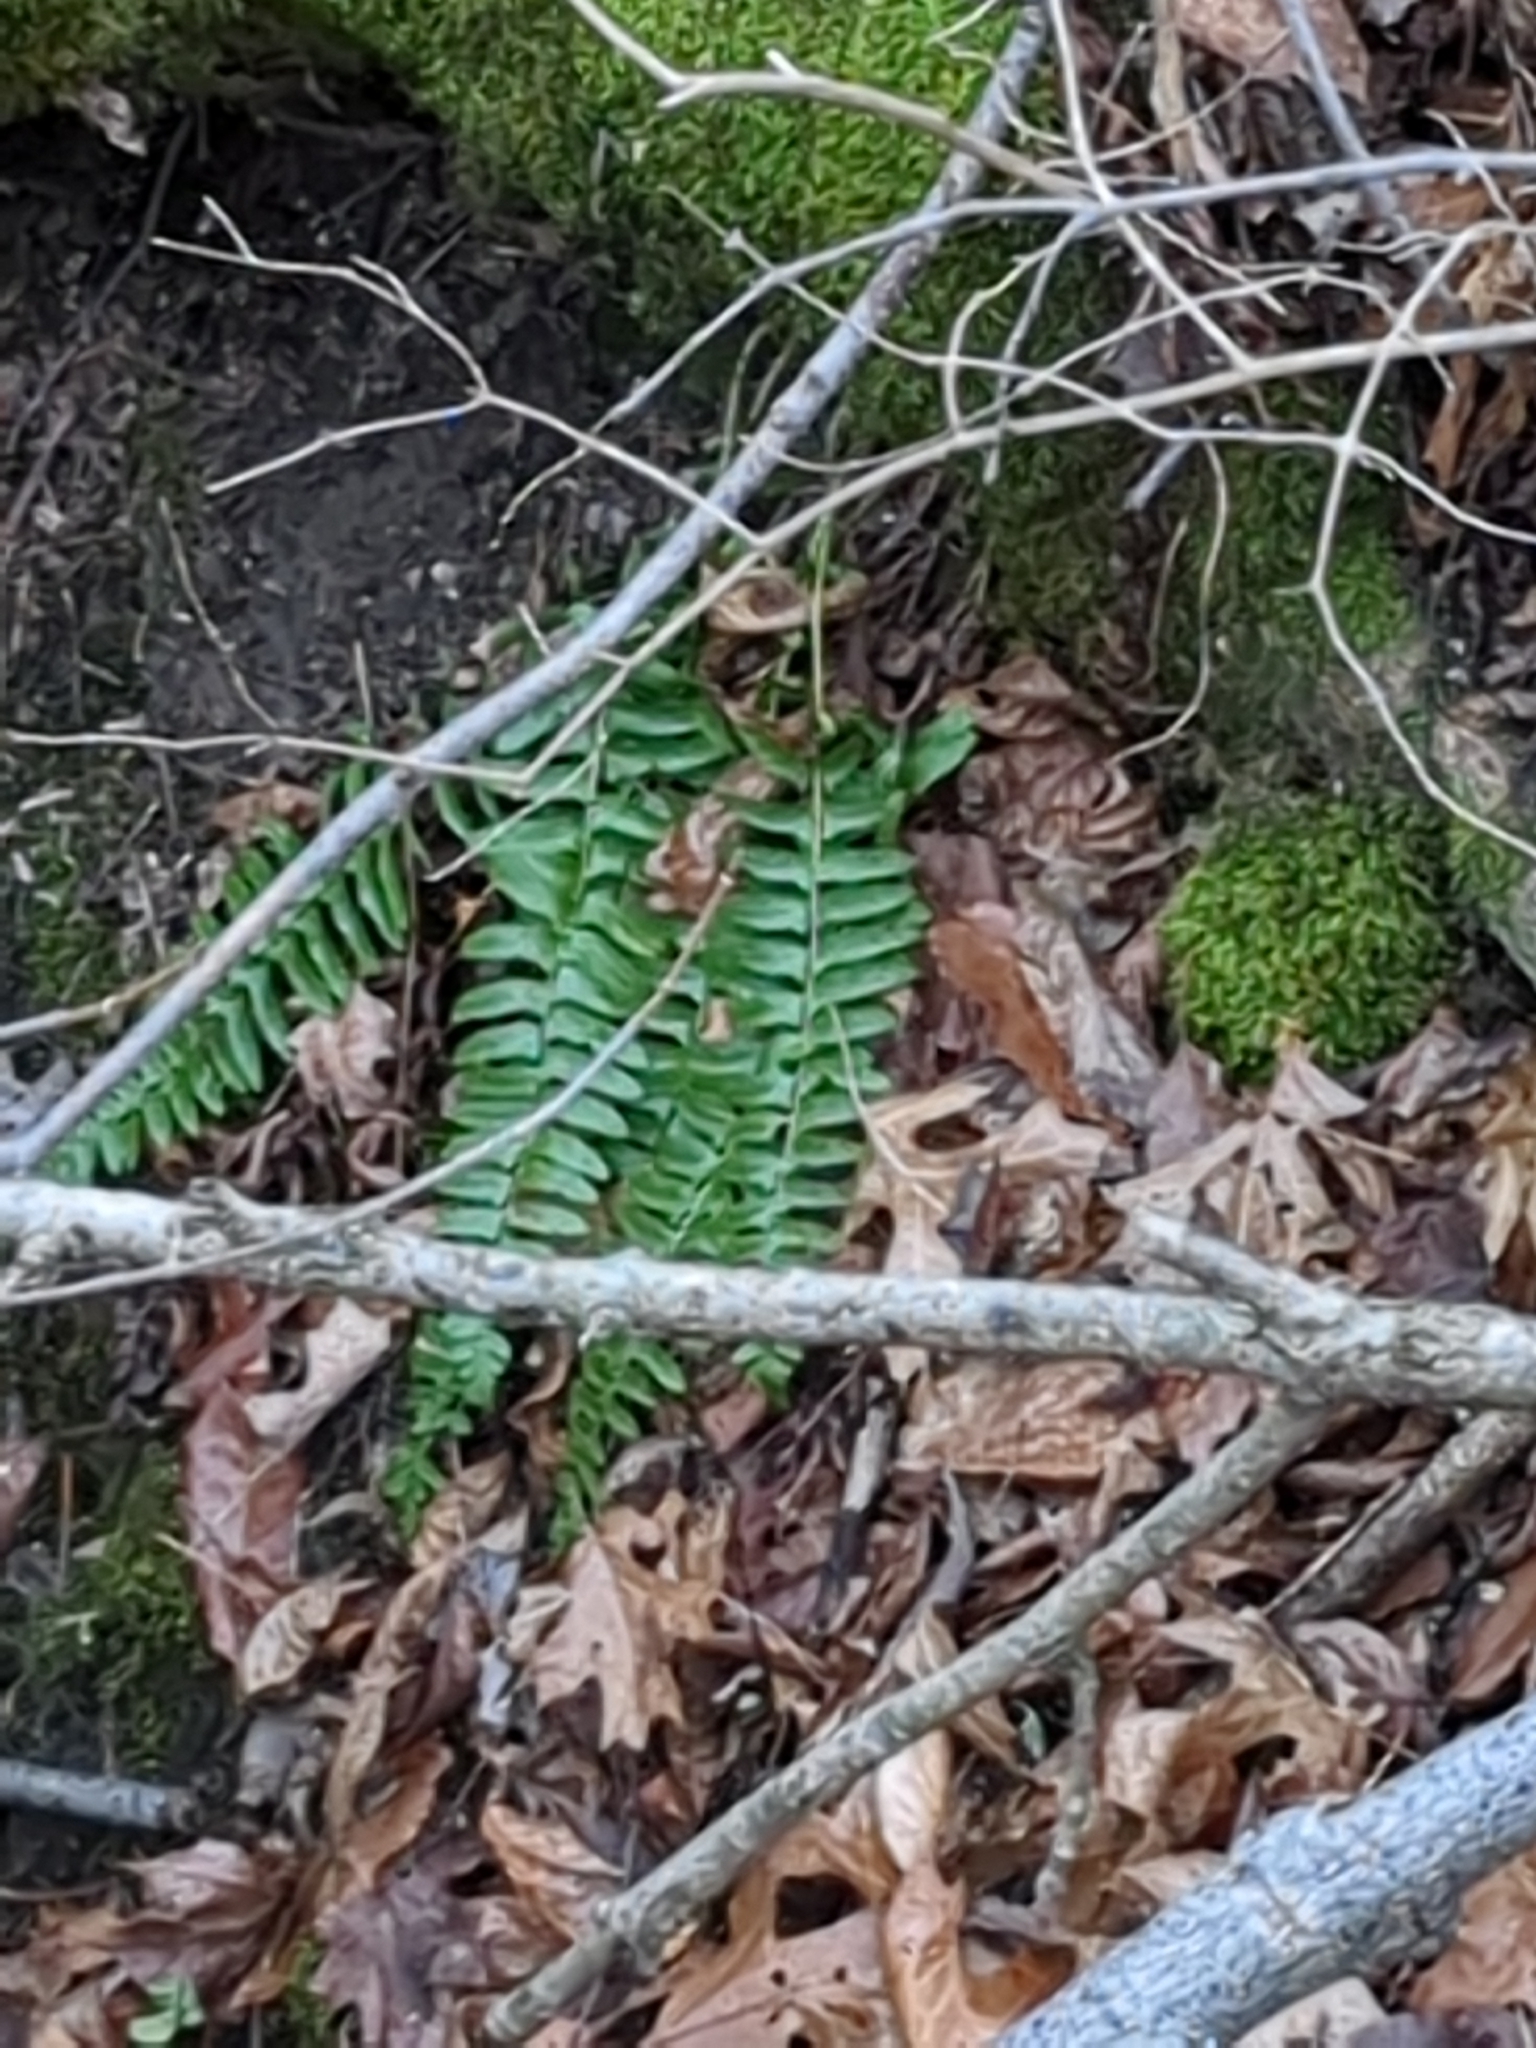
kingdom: Plantae
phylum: Tracheophyta
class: Polypodiopsida
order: Polypodiales
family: Dryopteridaceae
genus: Polystichum
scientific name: Polystichum acrostichoides
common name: Christmas fern
